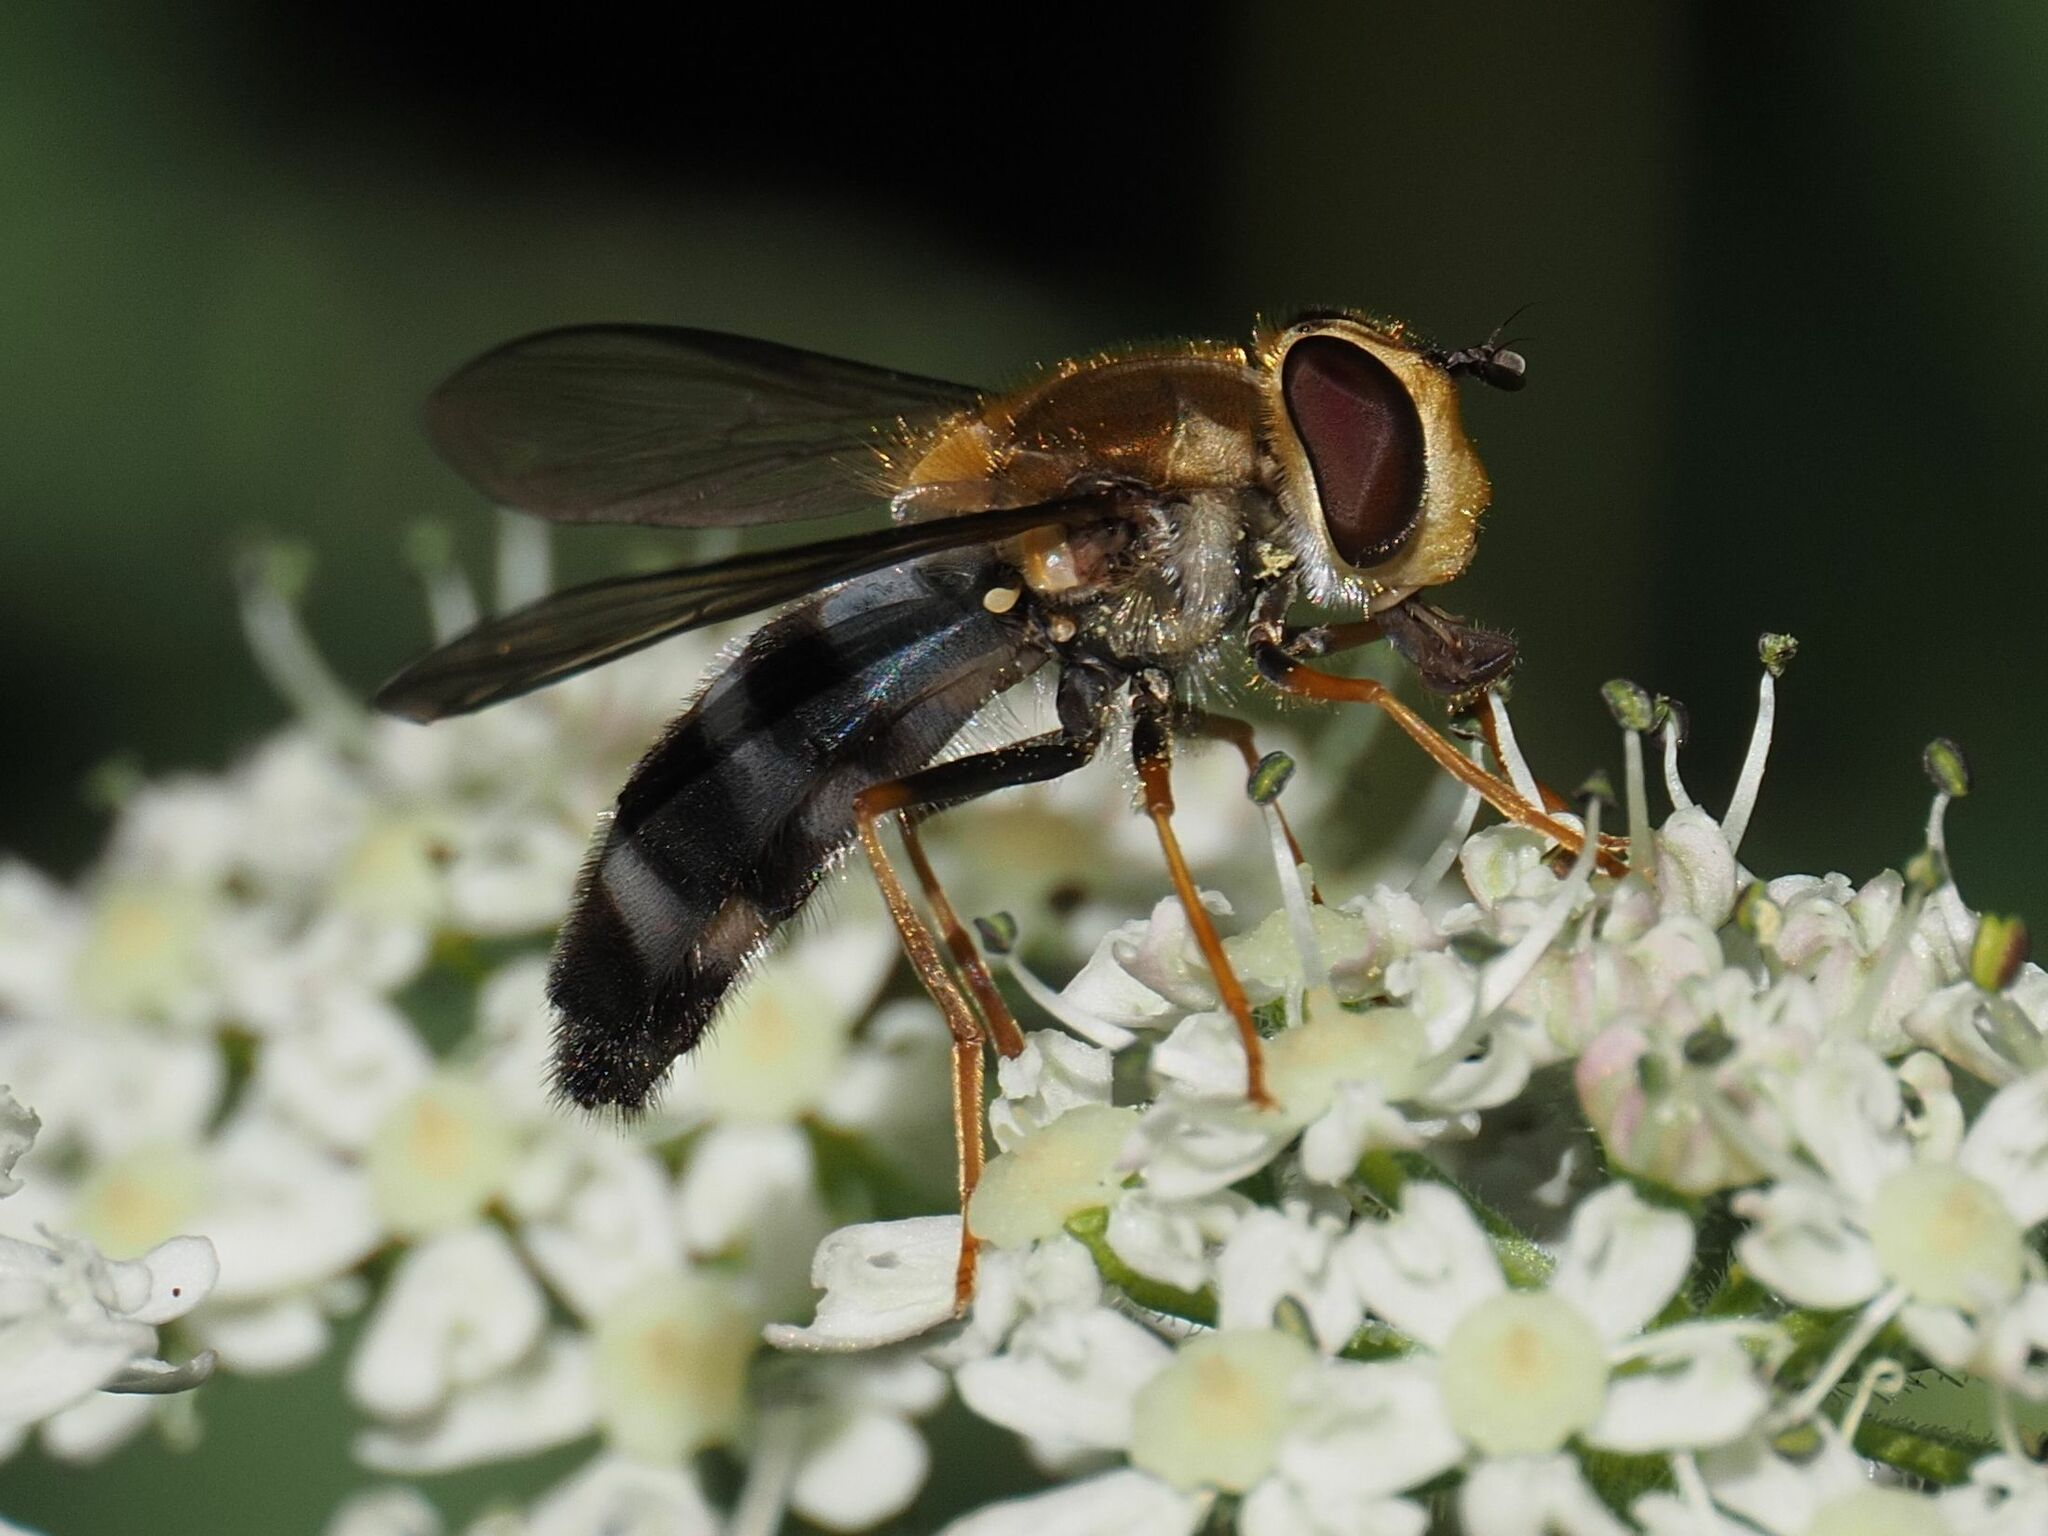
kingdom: Animalia
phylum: Arthropoda
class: Insecta
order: Diptera
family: Syrphidae
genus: Leucozona
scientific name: Leucozona glaucia
